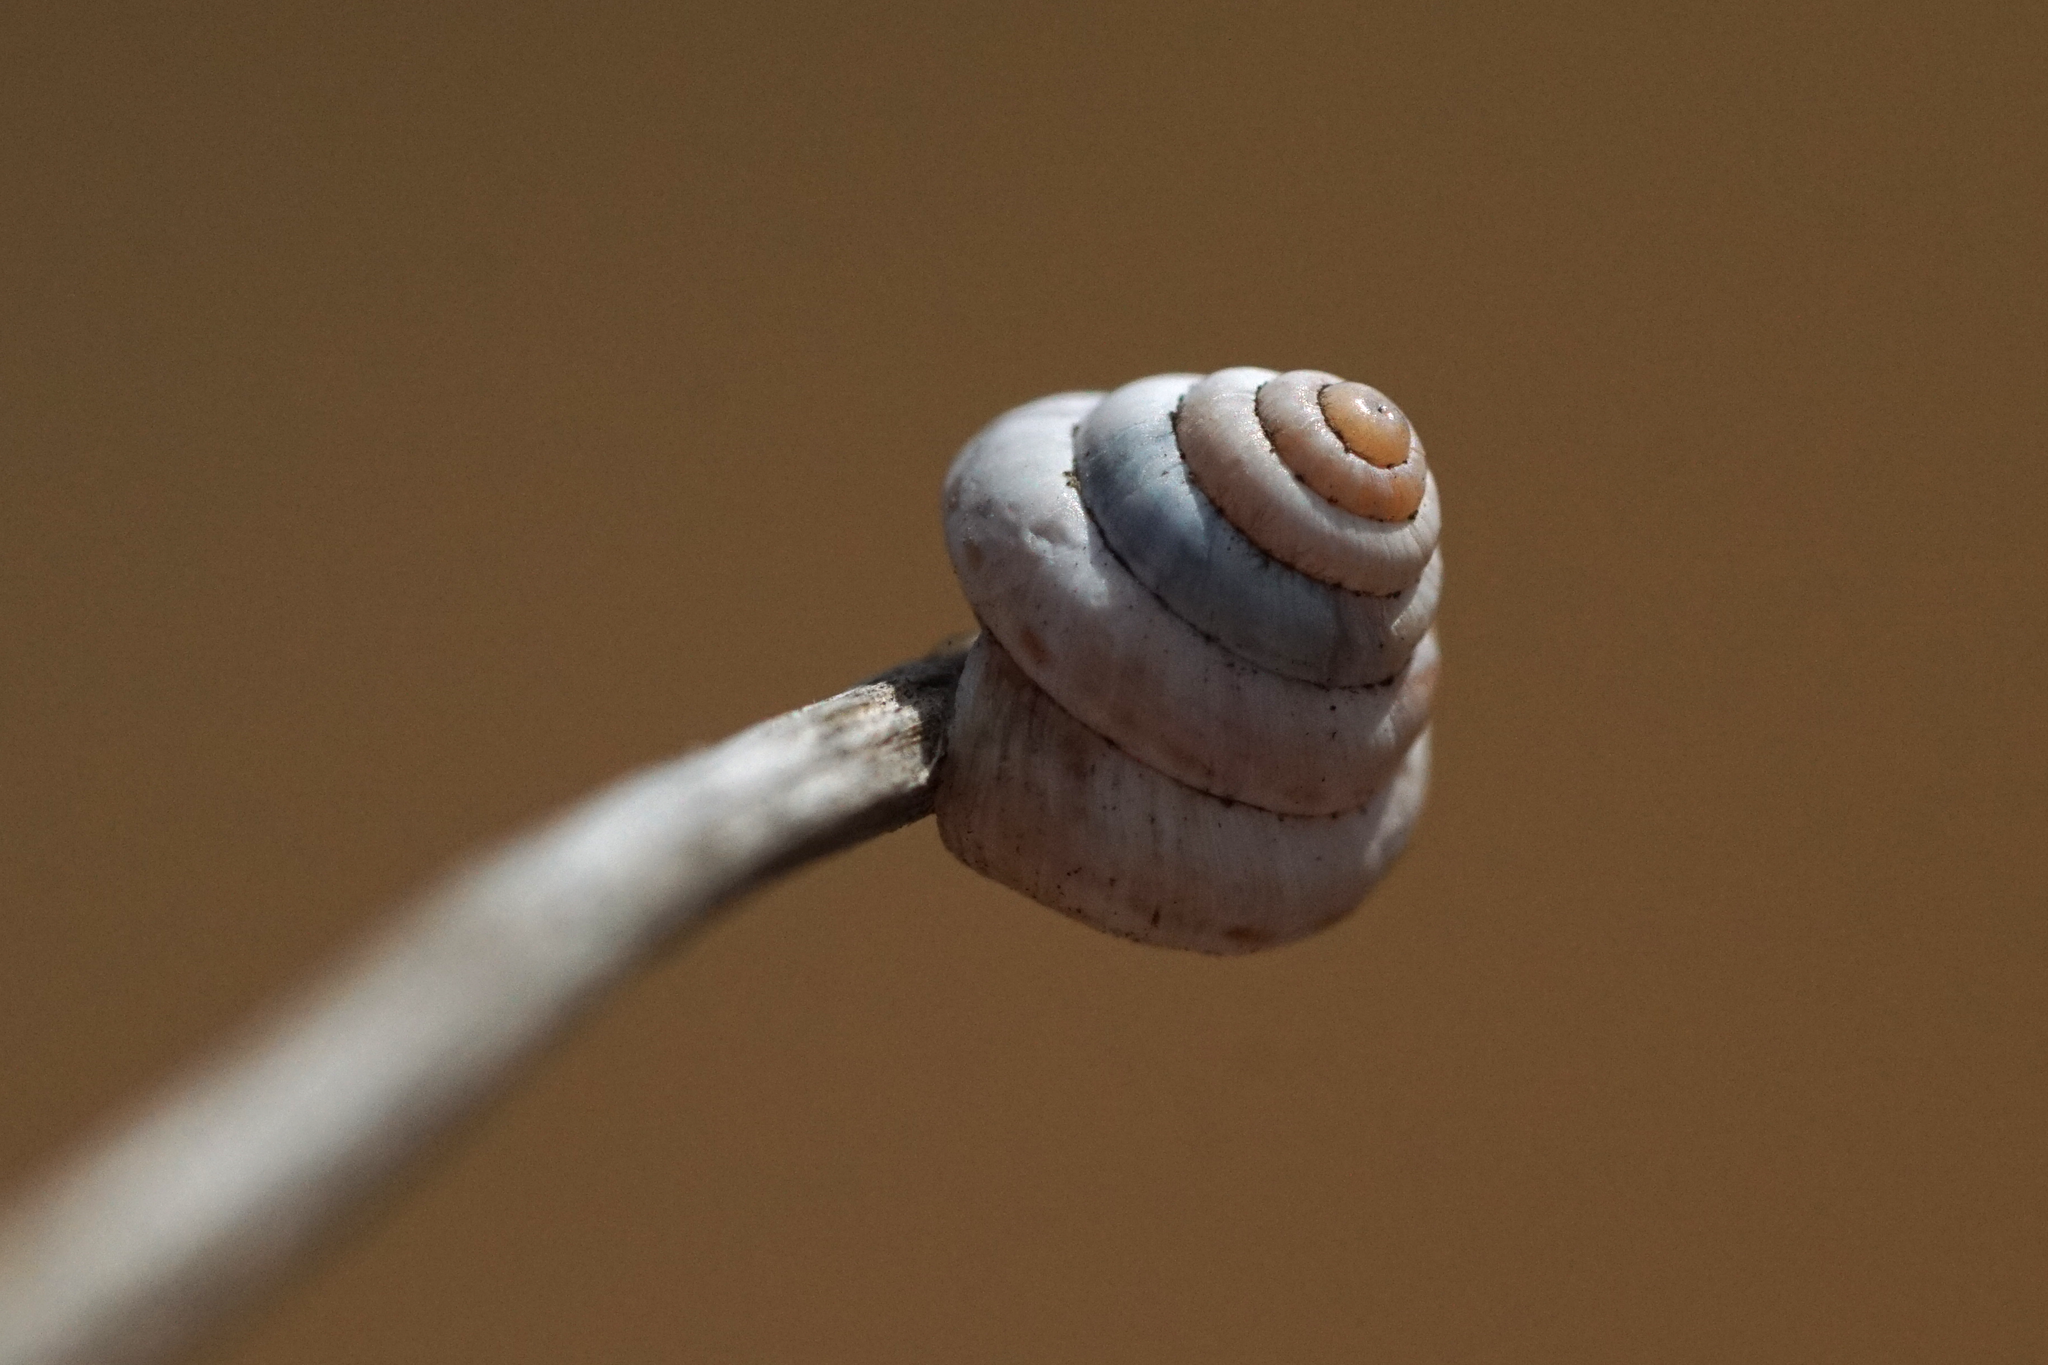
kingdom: Animalia
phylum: Mollusca
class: Gastropoda
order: Stylommatophora
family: Geomitridae
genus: Trochoidea
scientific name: Trochoidea pyramidata
